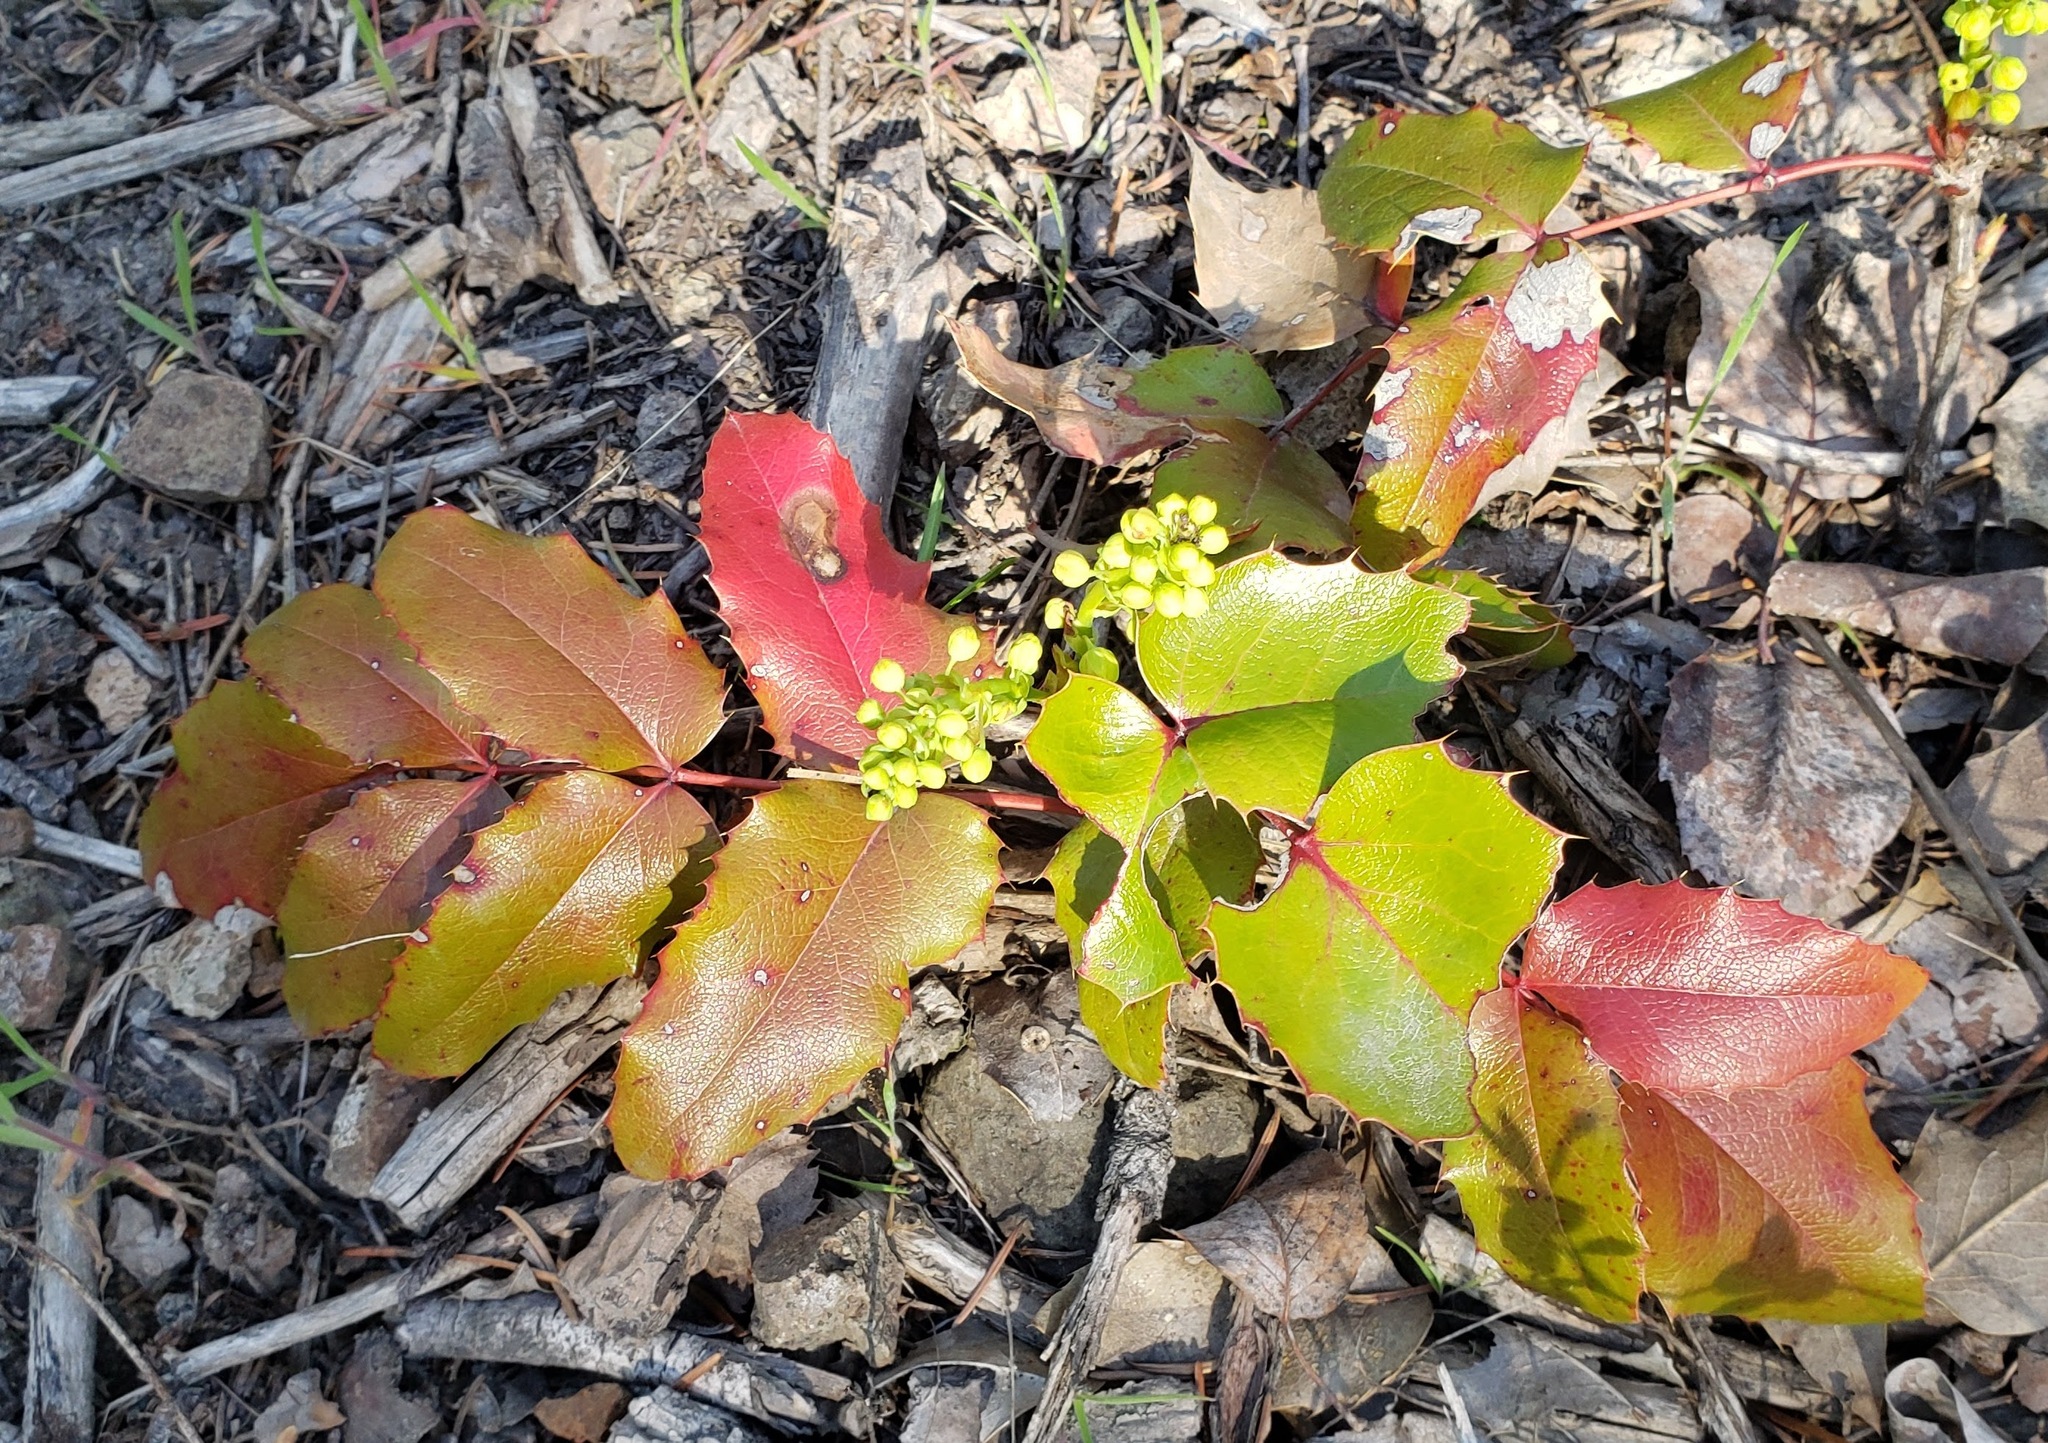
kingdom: Plantae
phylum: Tracheophyta
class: Magnoliopsida
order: Ranunculales
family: Berberidaceae
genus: Mahonia
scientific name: Mahonia aquifolium
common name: Oregon-grape
